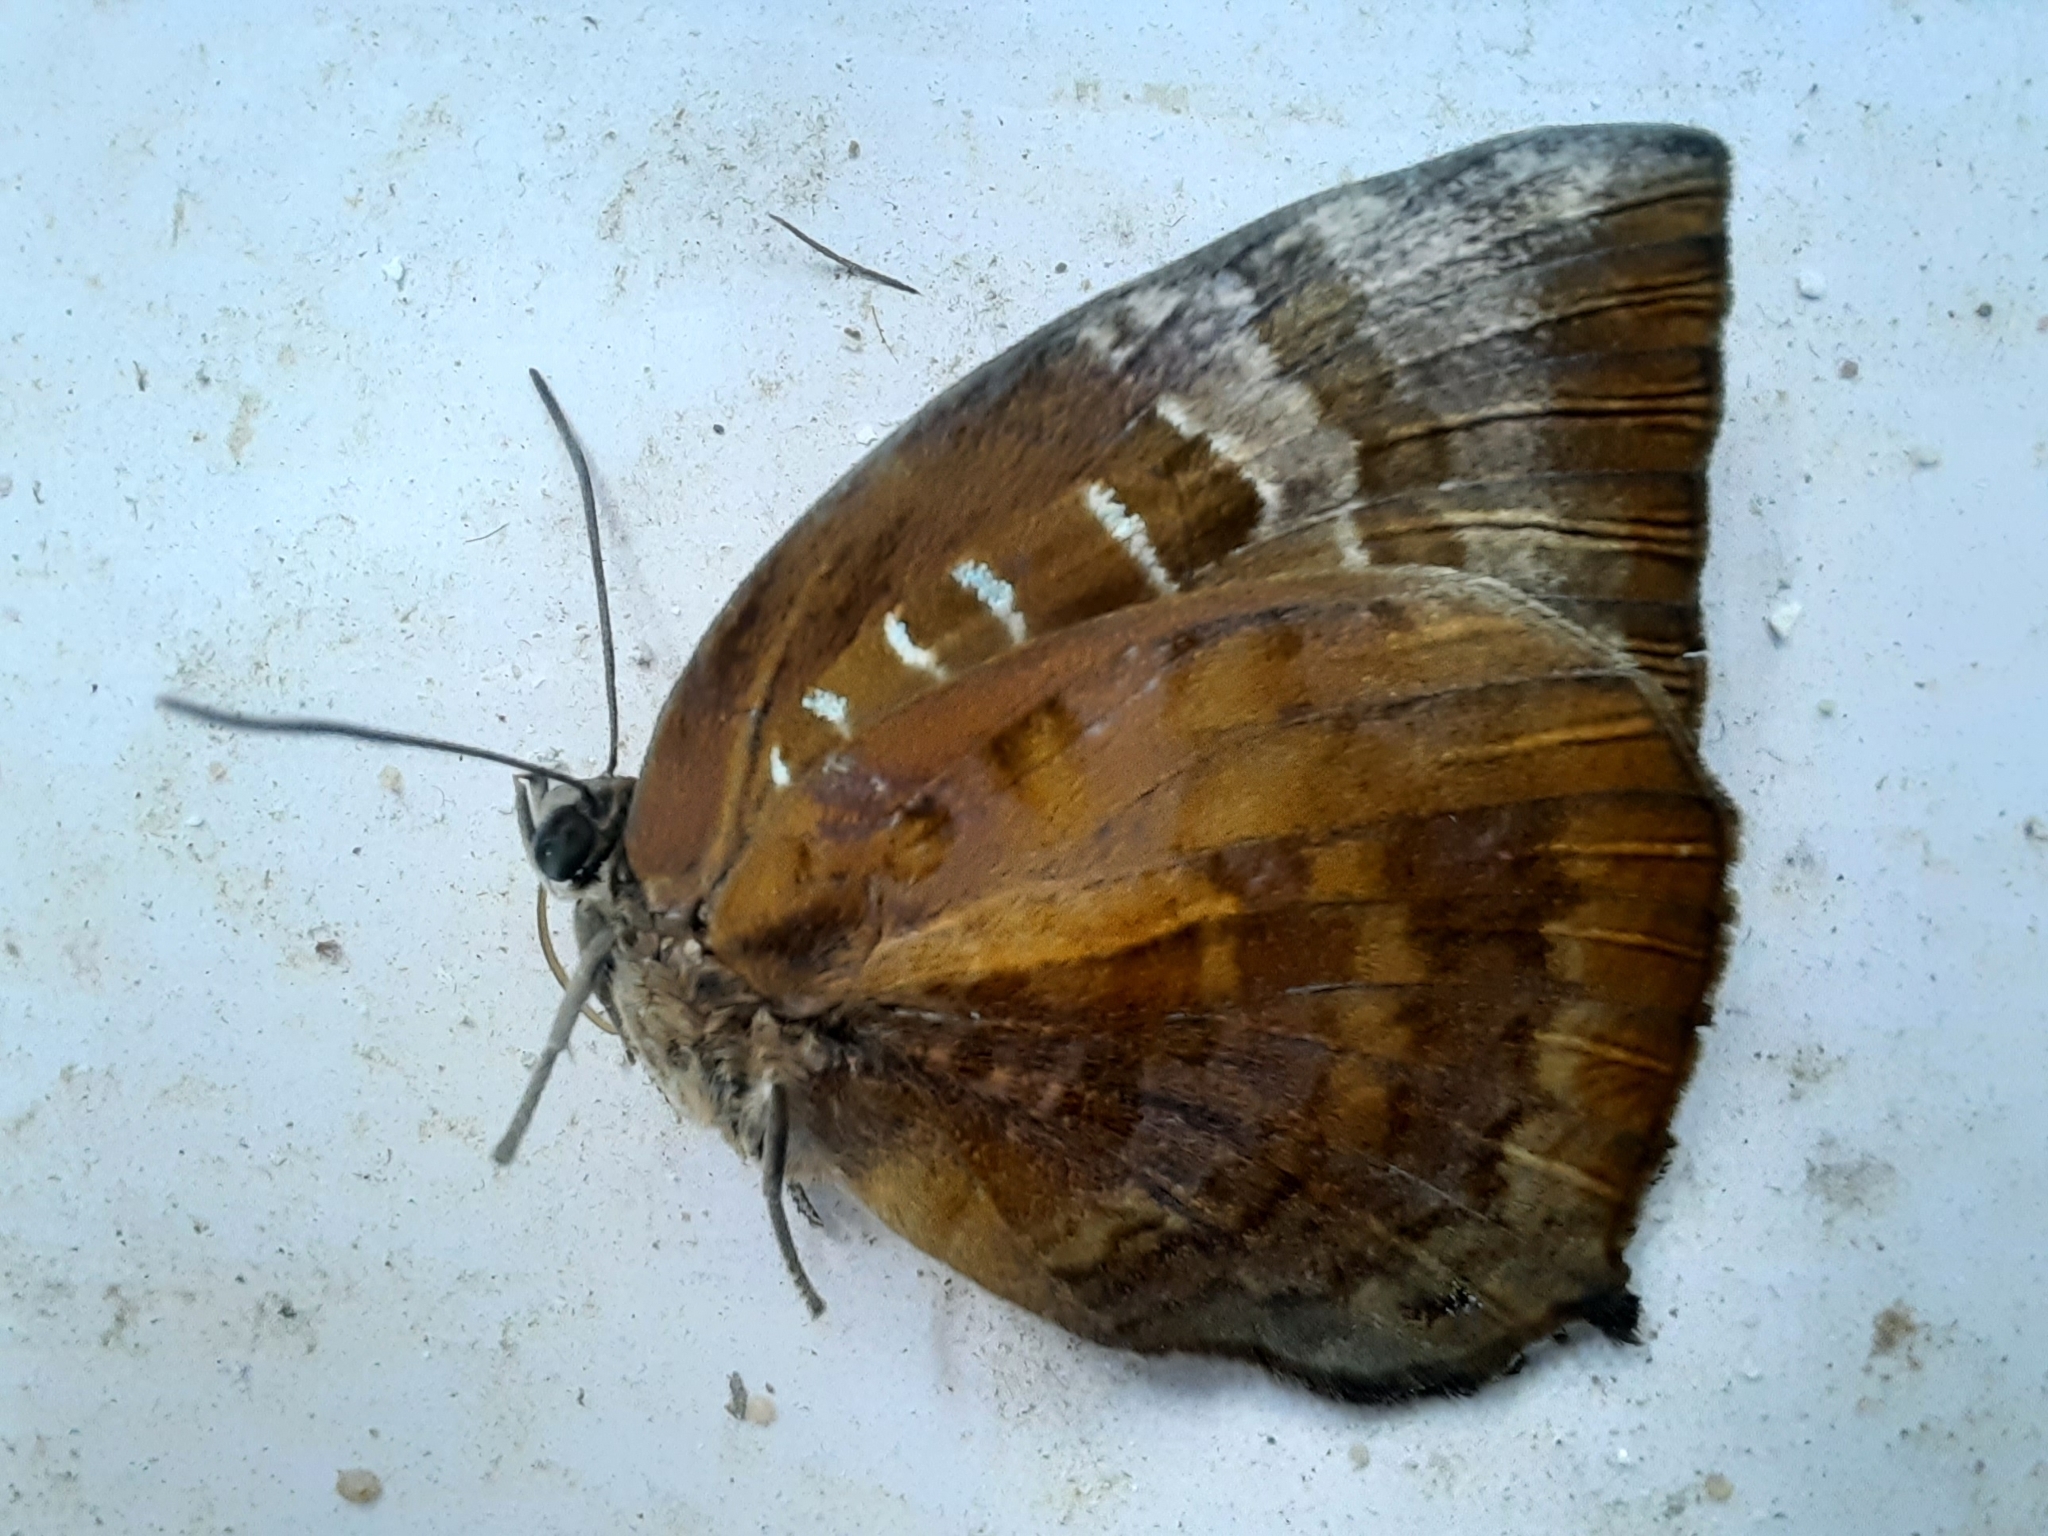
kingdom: Animalia
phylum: Arthropoda
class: Insecta
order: Lepidoptera
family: Lycaenidae
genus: Arhopala
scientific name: Arhopala centaurus
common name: Dull oak-blue
